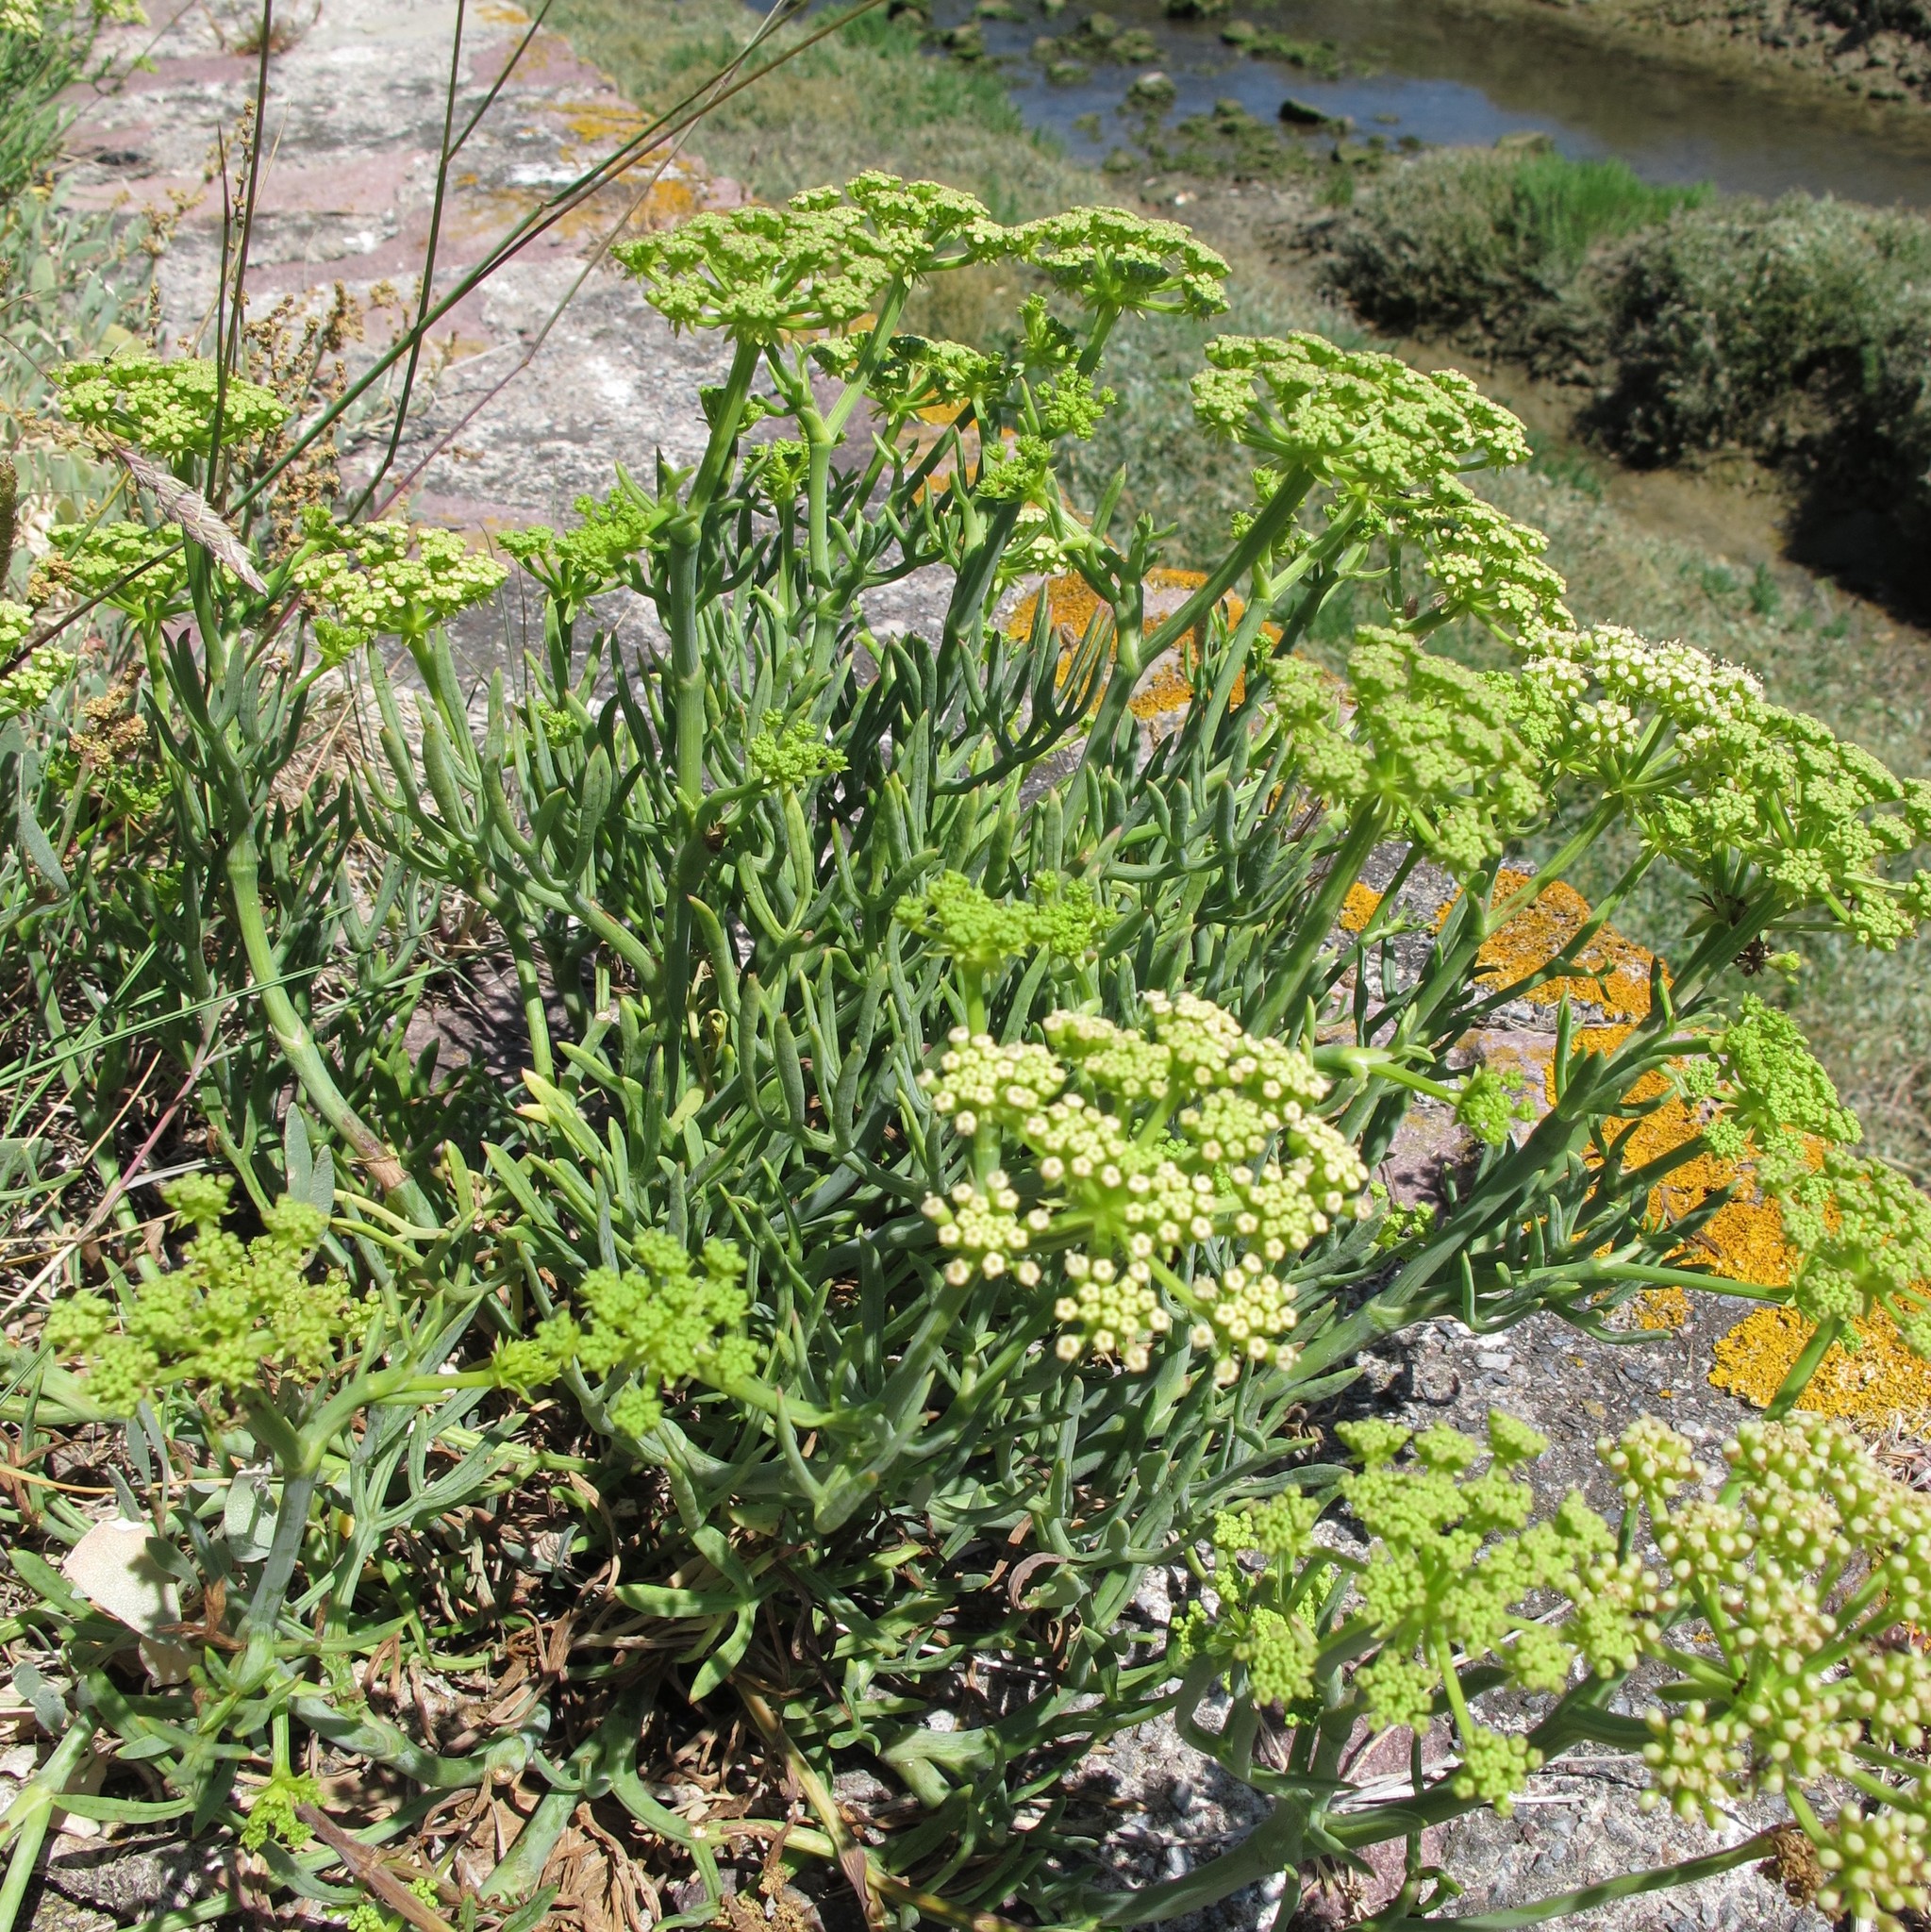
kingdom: Plantae
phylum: Tracheophyta
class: Magnoliopsida
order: Apiales
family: Apiaceae
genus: Crithmum
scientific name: Crithmum maritimum
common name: Rock samphire
